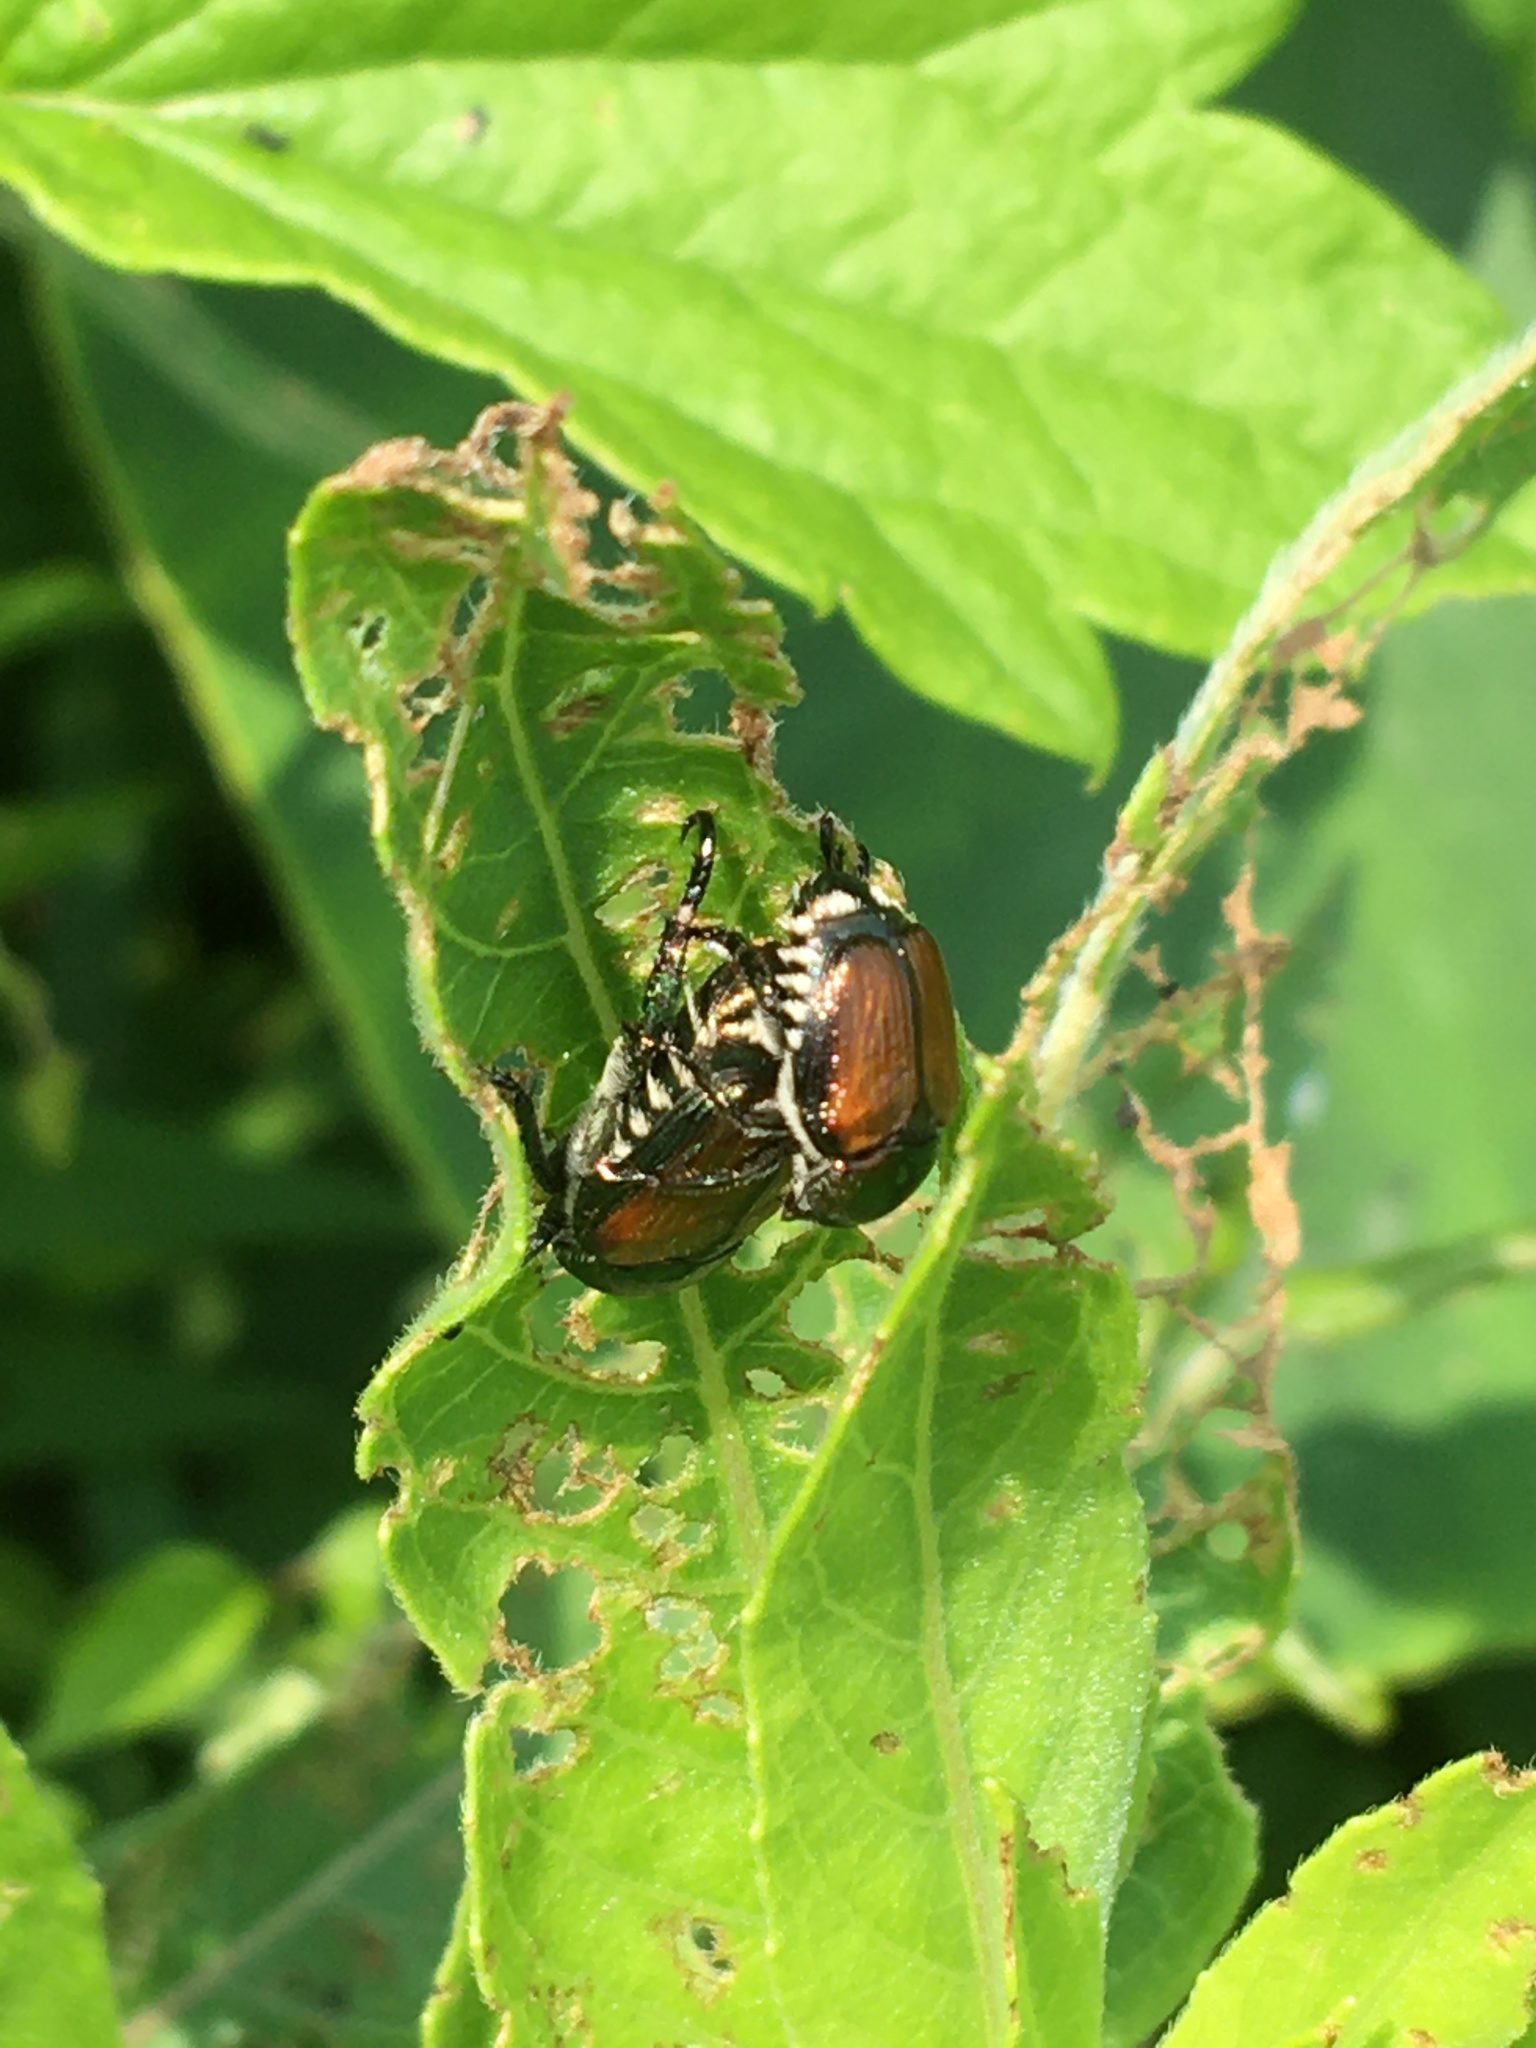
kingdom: Animalia
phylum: Arthropoda
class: Insecta
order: Coleoptera
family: Scarabaeidae
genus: Popillia
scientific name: Popillia japonica
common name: Japanese beetle
